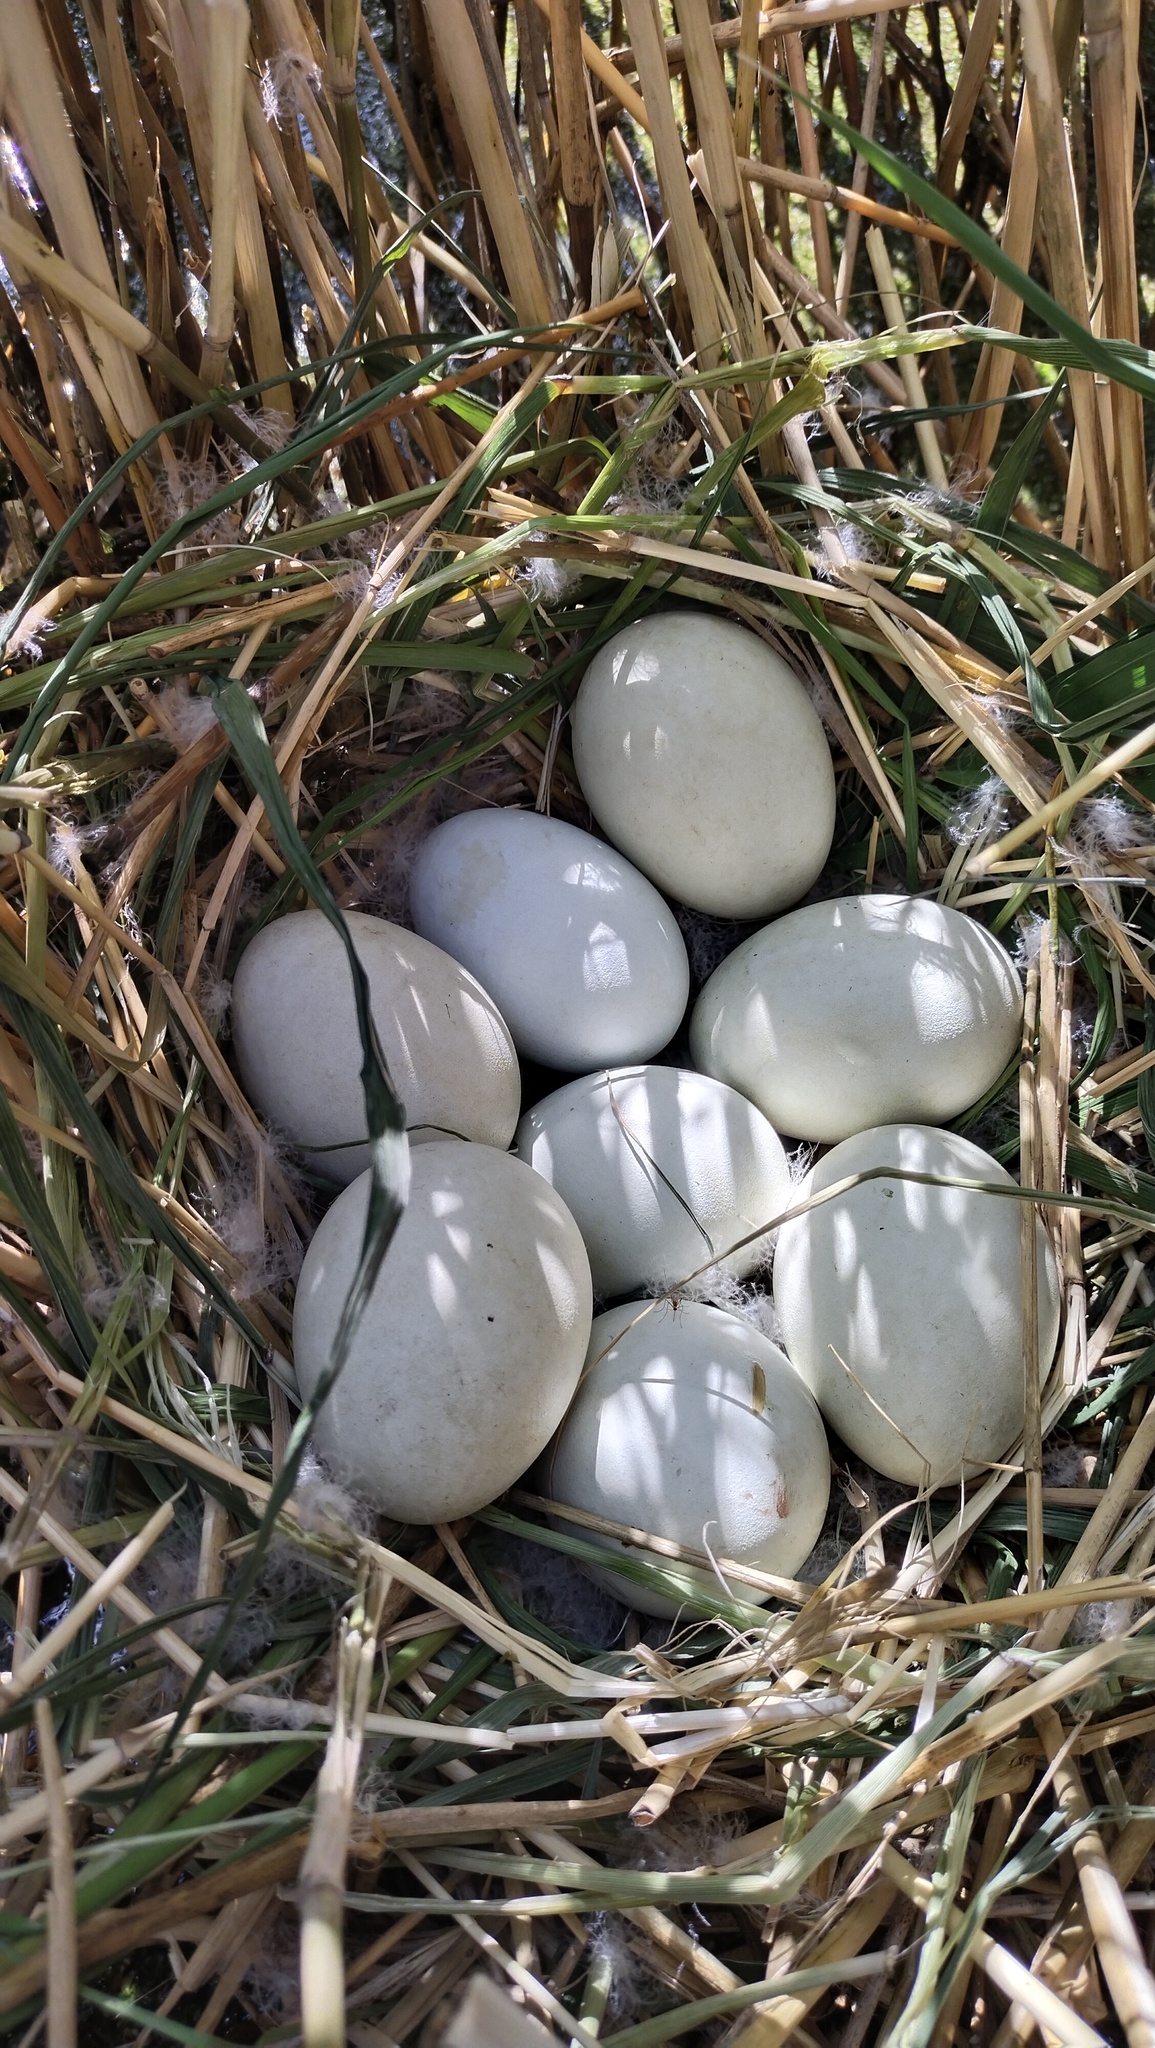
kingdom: Animalia
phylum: Chordata
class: Aves
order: Anseriformes
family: Anatidae
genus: Oxyura
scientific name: Oxyura leucocephala
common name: White-headed duck
